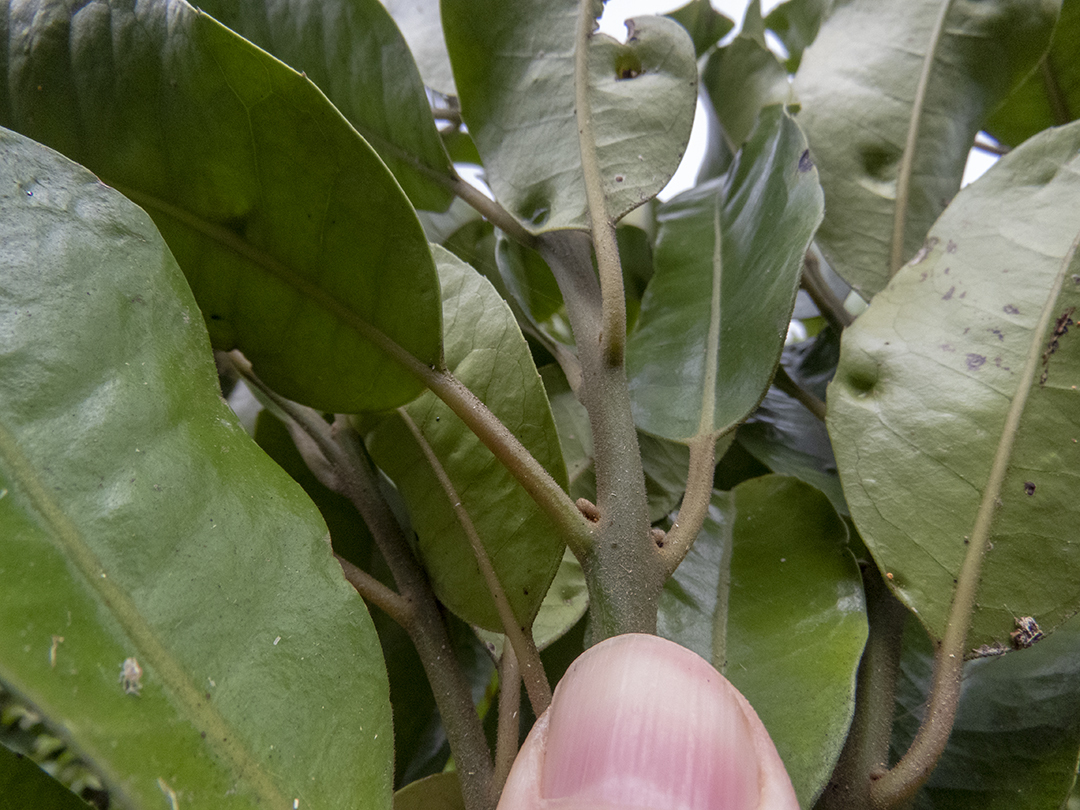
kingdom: Plantae
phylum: Tracheophyta
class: Magnoliopsida
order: Laurales
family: Monimiaceae
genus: Hedycarya
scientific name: Hedycarya arborea
